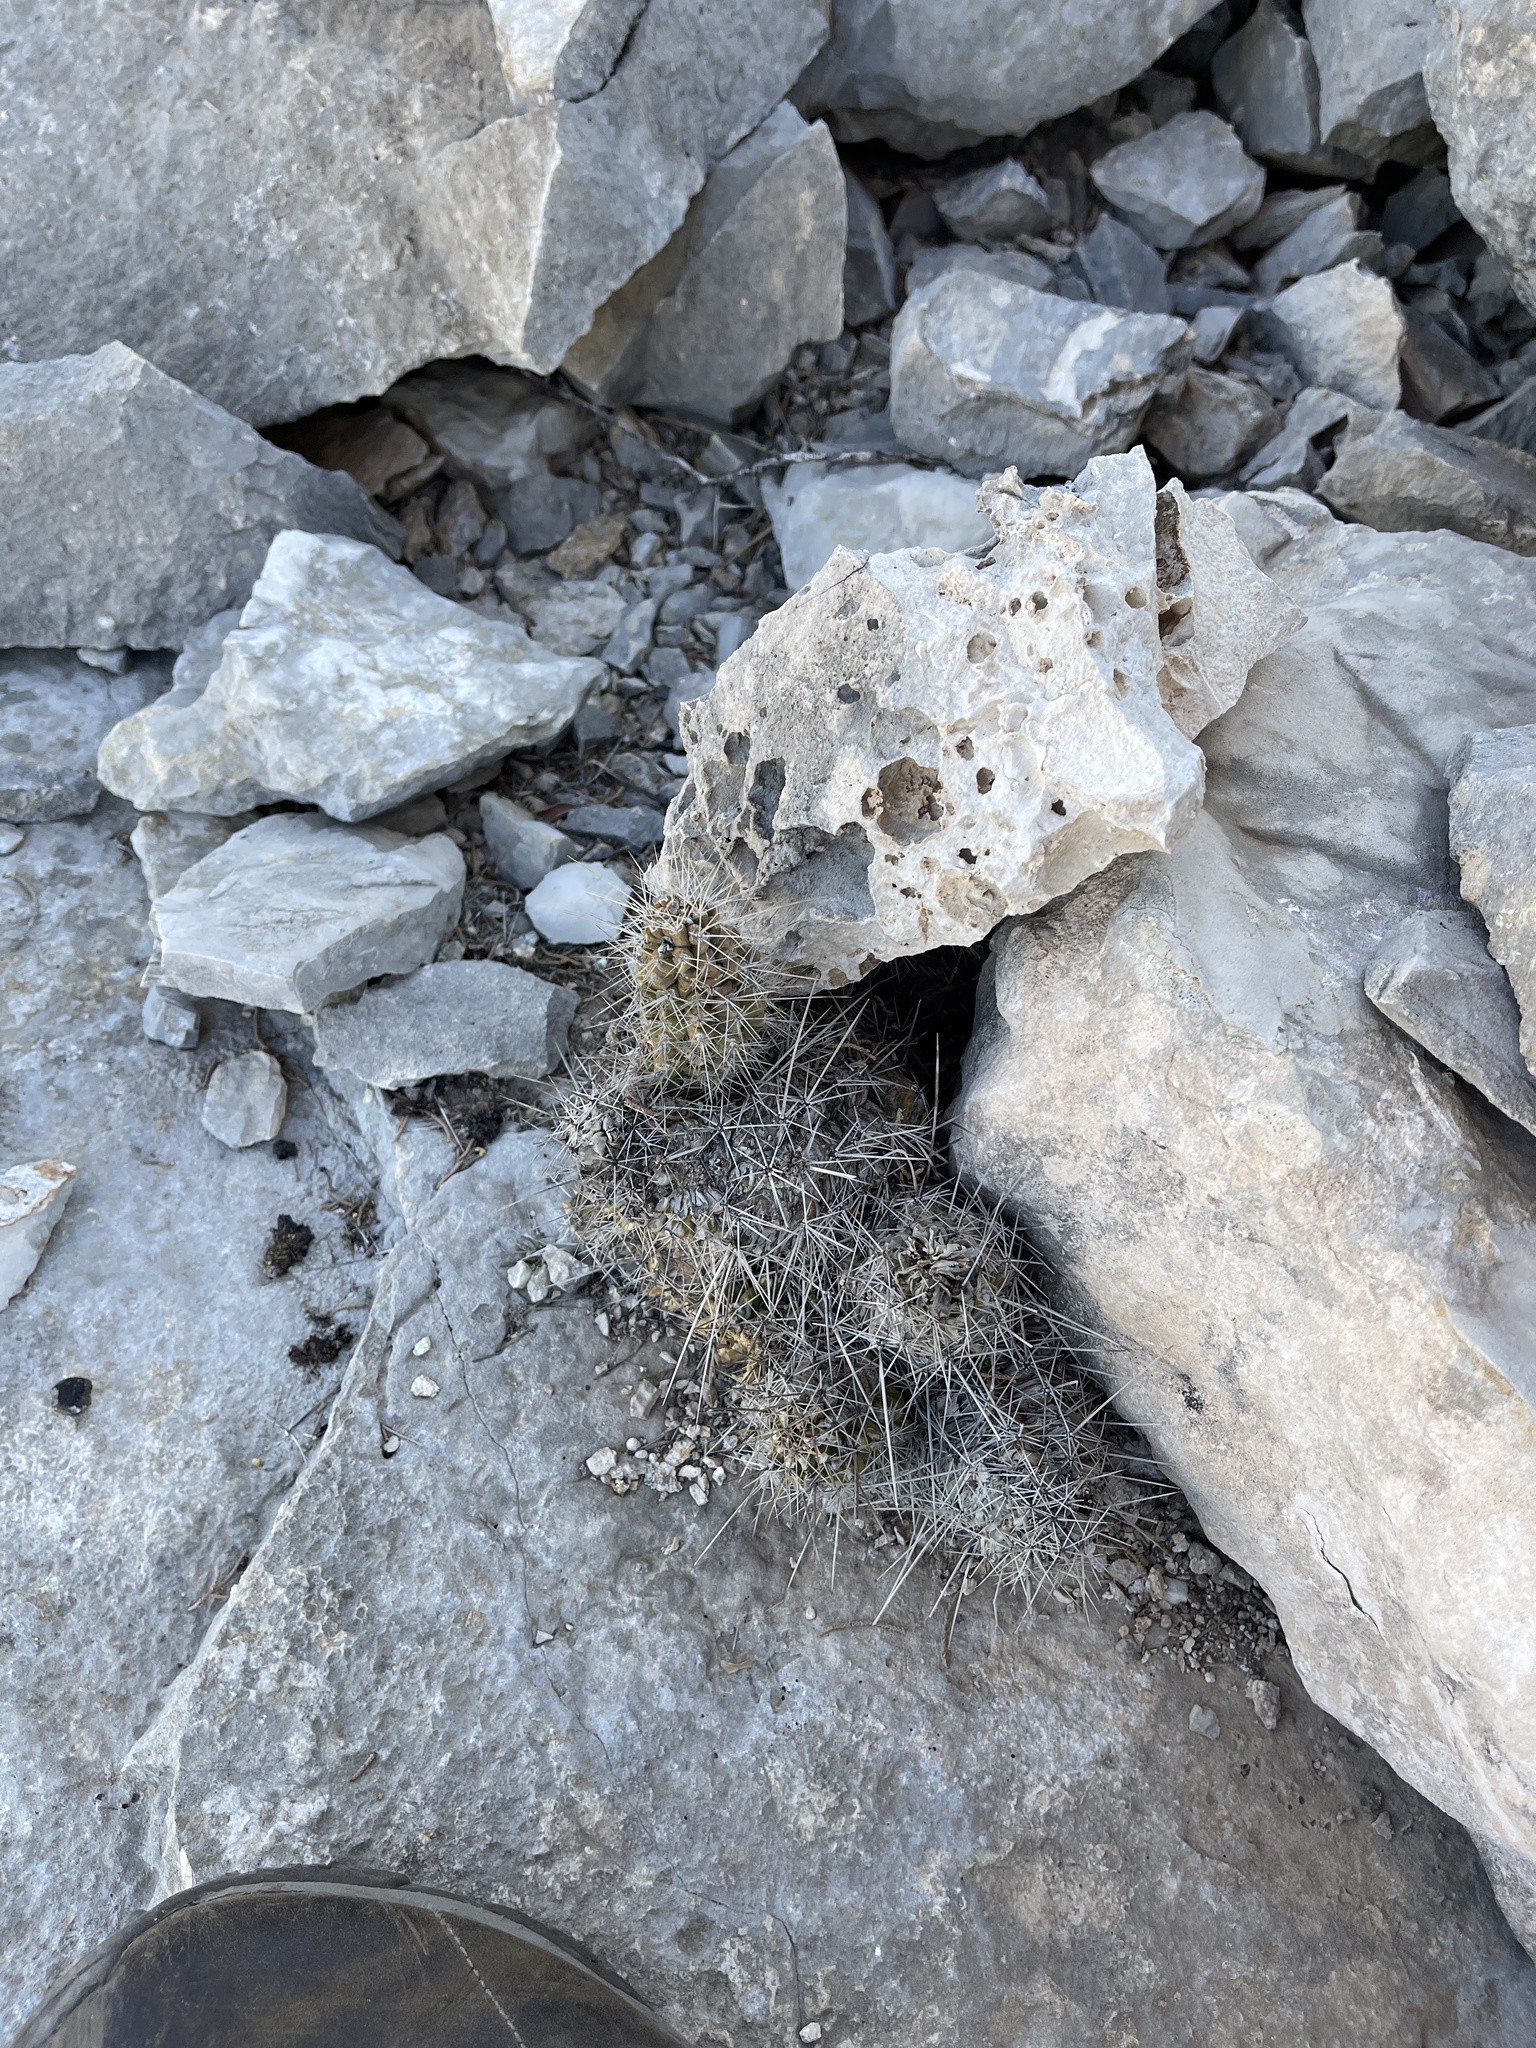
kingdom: Plantae
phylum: Tracheophyta
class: Magnoliopsida
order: Caryophyllales
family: Cactaceae
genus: Echinocereus
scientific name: Echinocereus enneacanthus
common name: Pitaya
